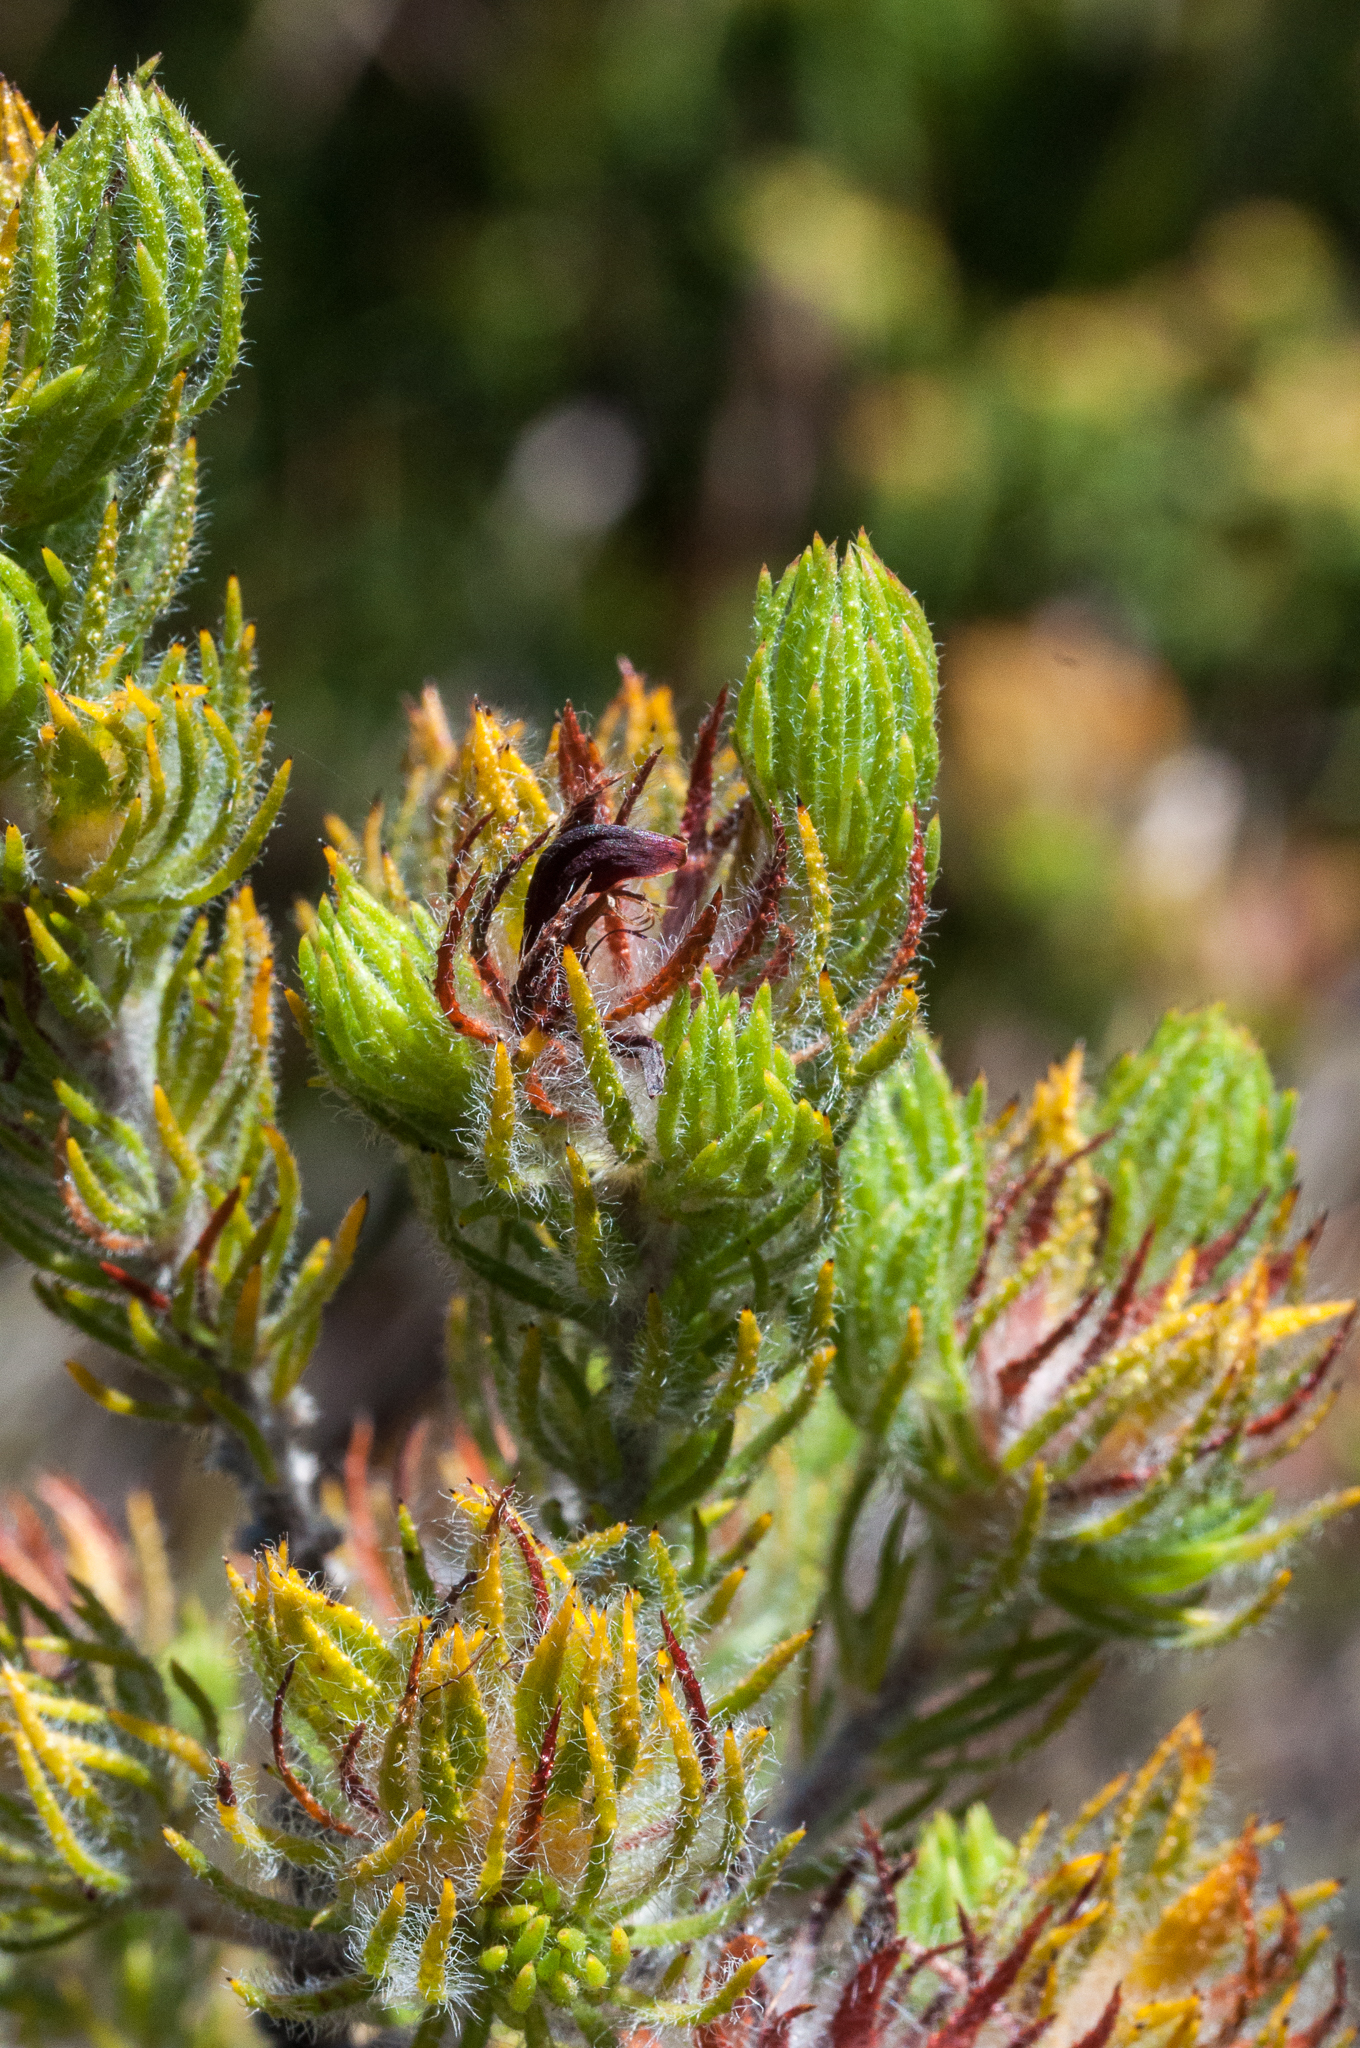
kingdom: Plantae
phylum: Tracheophyta
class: Magnoliopsida
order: Fabales
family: Fabaceae
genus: Aspalathus
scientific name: Aspalathus ciliaris
